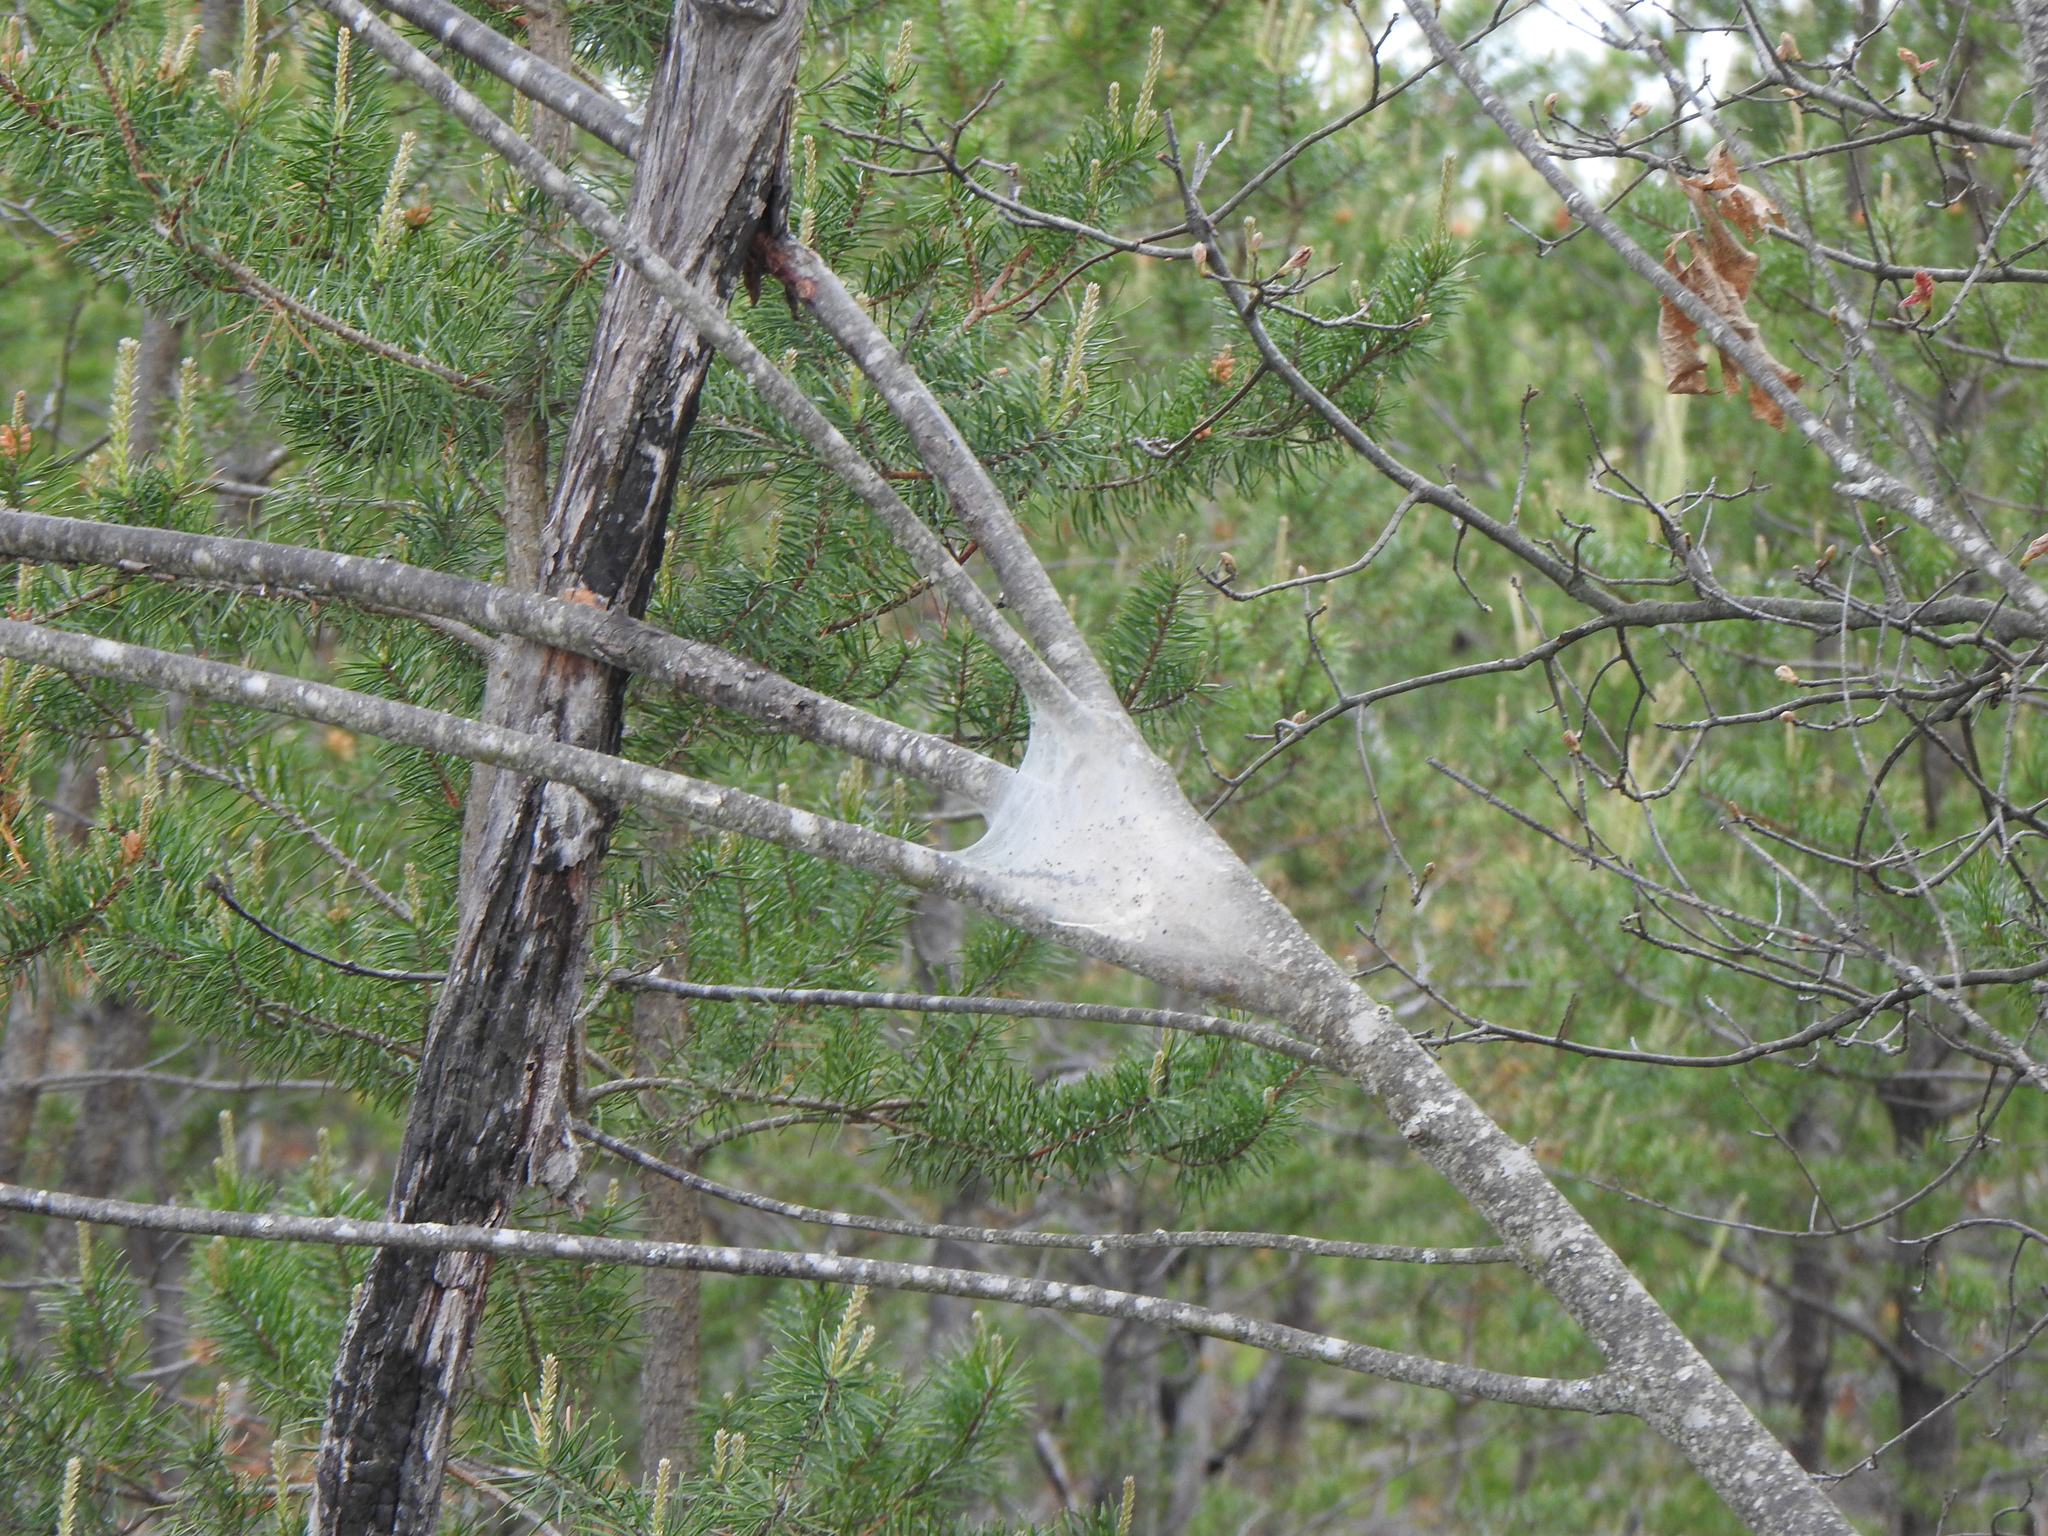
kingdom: Animalia
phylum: Arthropoda
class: Insecta
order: Lepidoptera
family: Lasiocampidae
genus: Malacosoma
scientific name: Malacosoma americana
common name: Eastern tent caterpillar moth
